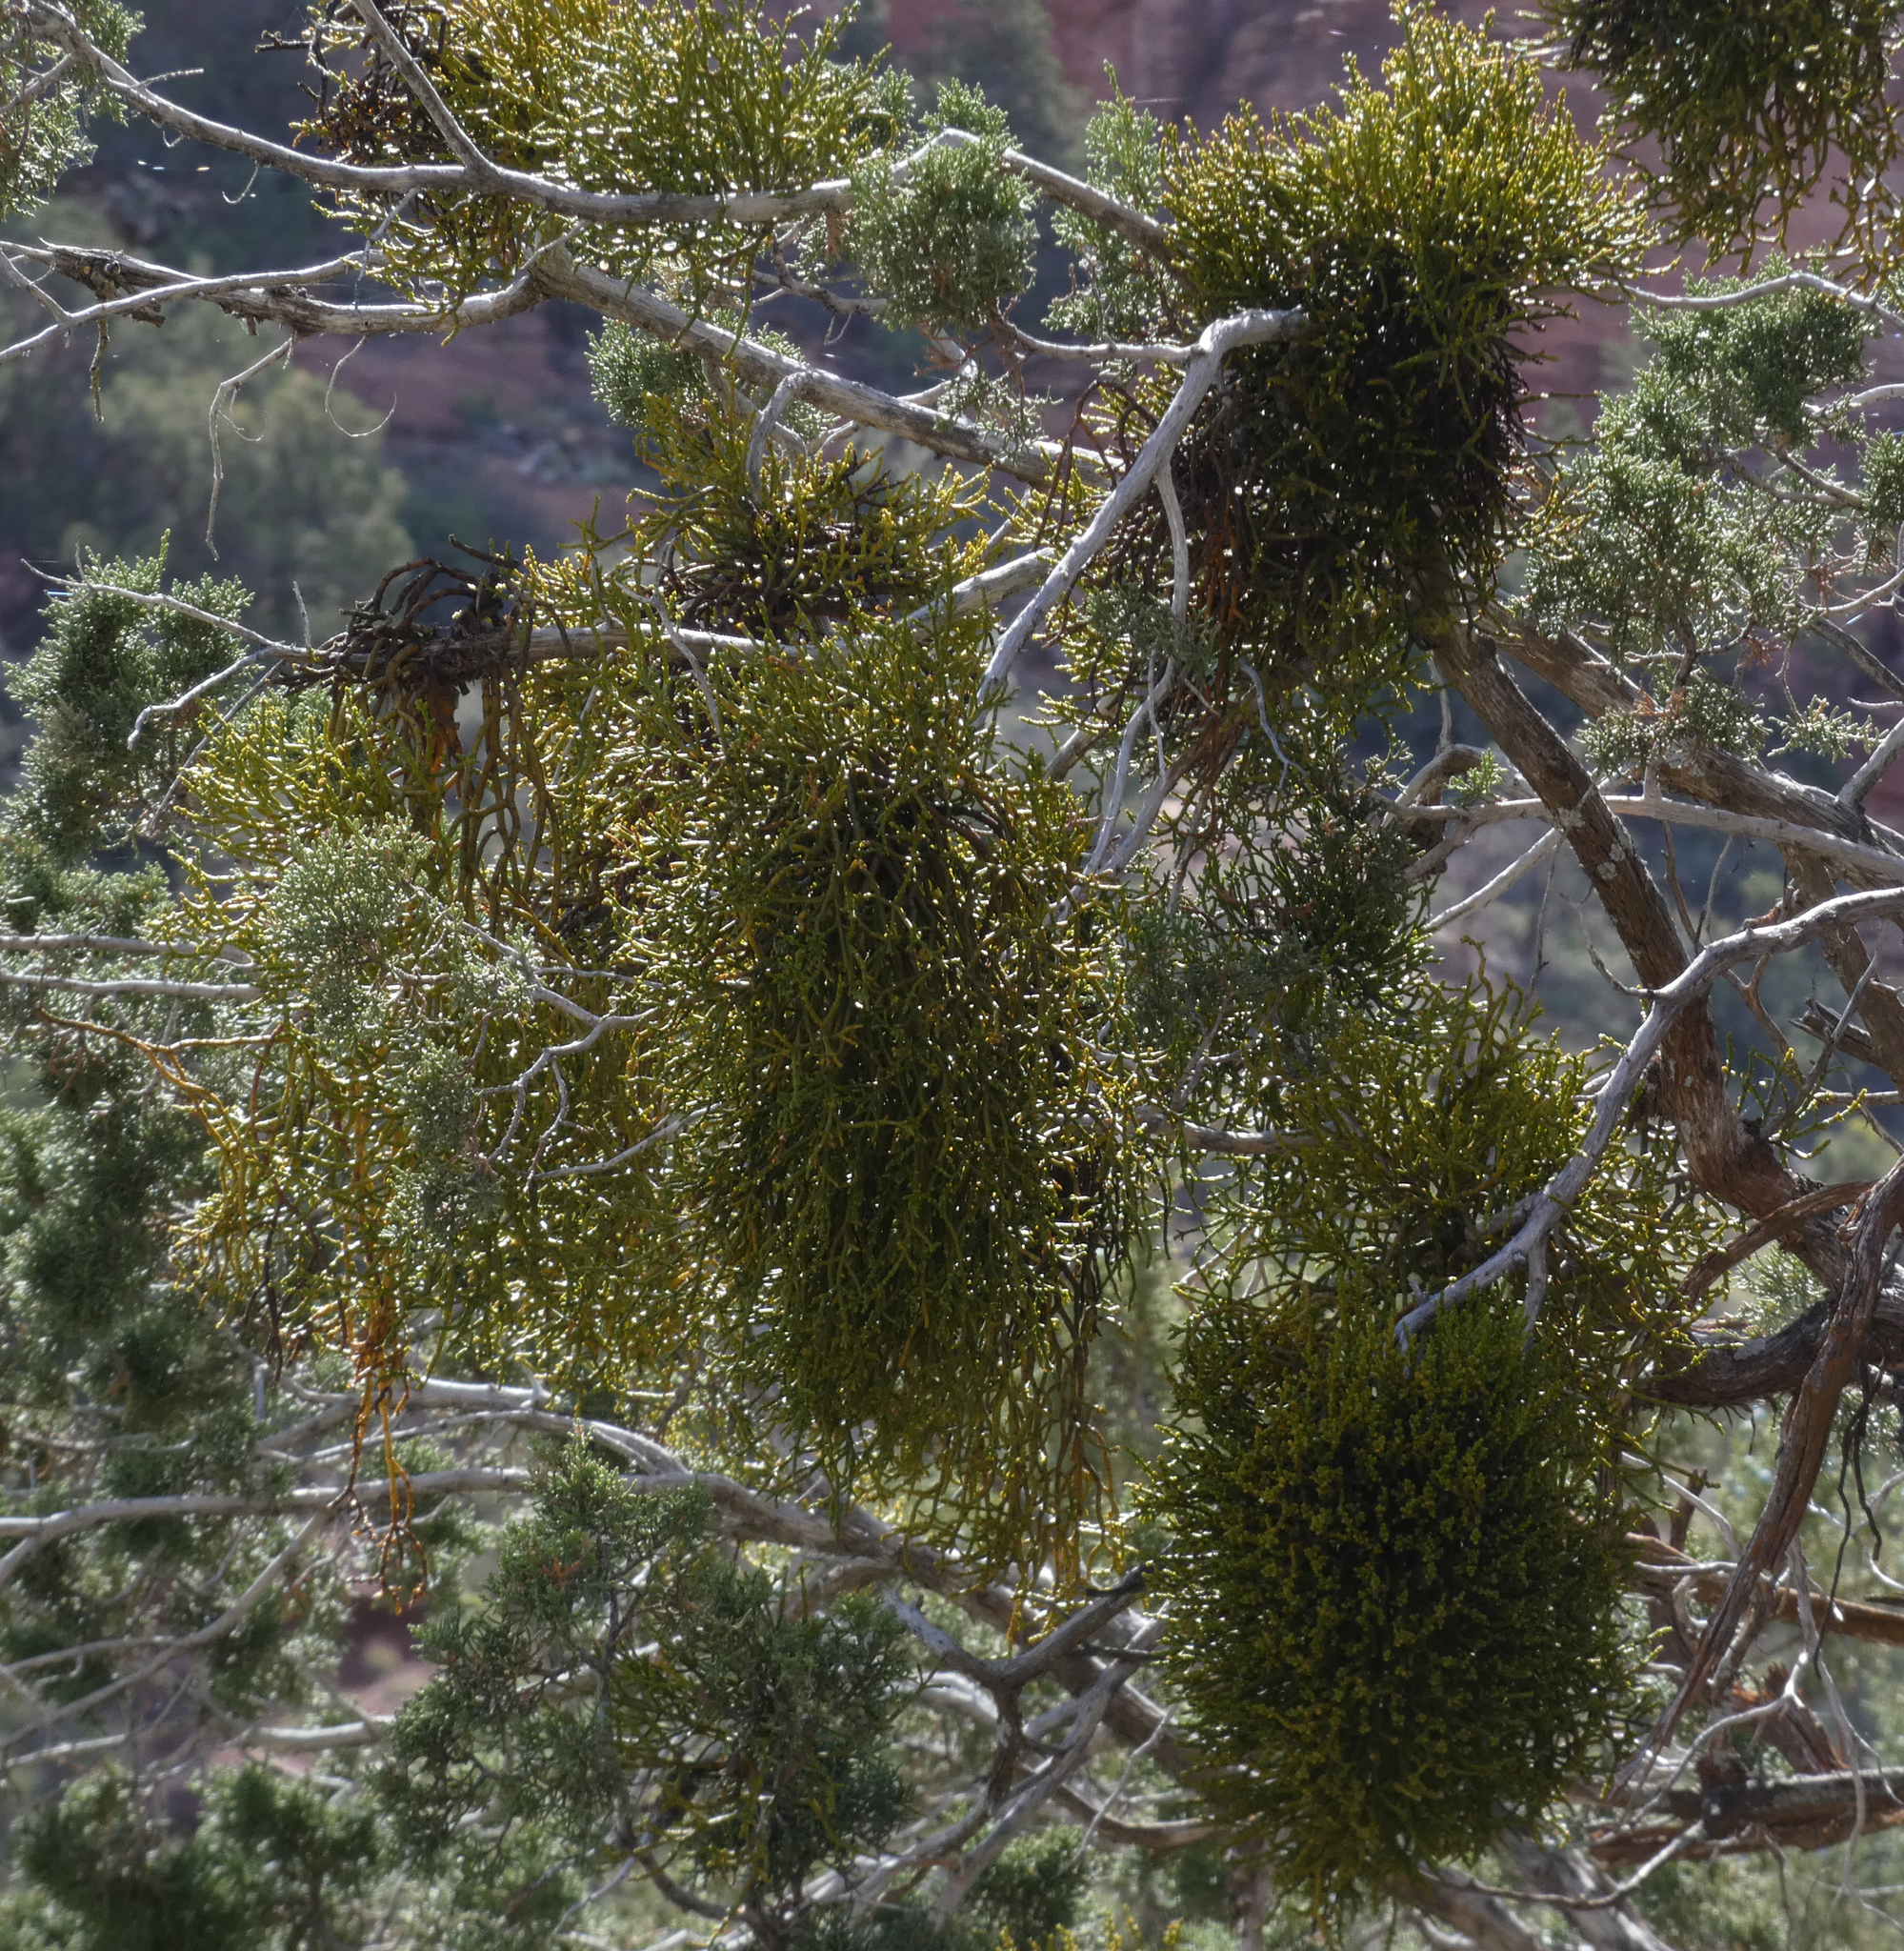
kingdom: Plantae
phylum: Tracheophyta
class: Magnoliopsida
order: Santalales
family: Viscaceae
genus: Phoradendron
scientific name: Phoradendron juniperinum
